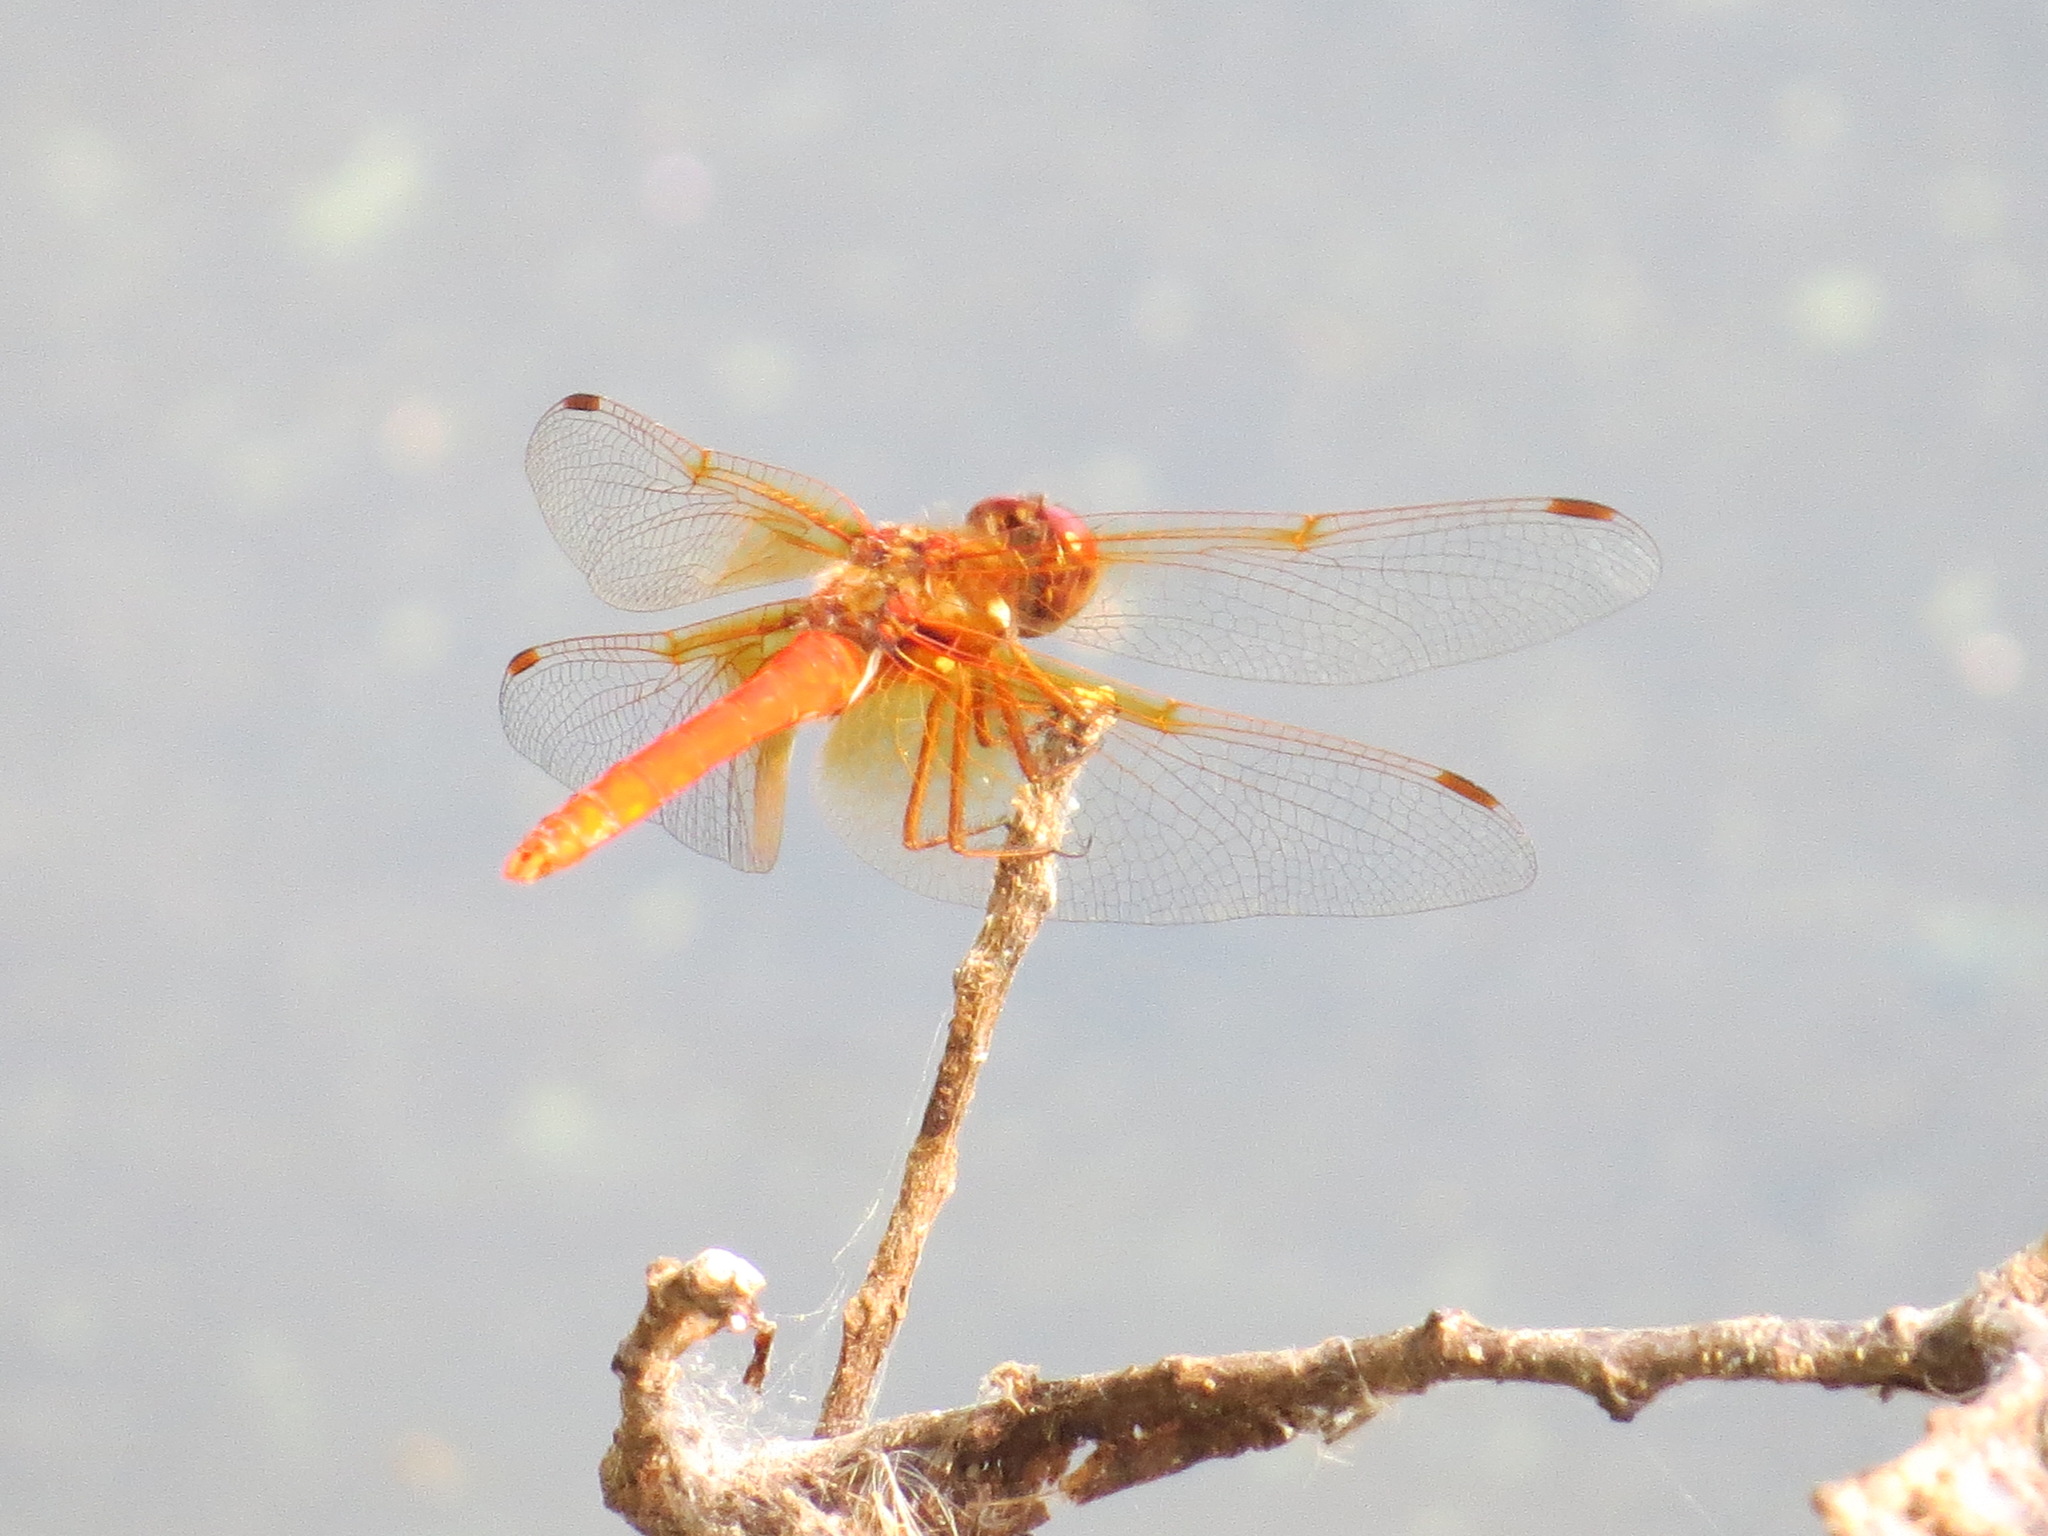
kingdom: Animalia
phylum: Arthropoda
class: Insecta
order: Odonata
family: Libellulidae
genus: Sympetrum
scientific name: Sympetrum illotum
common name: Cardinal meadowhawk
